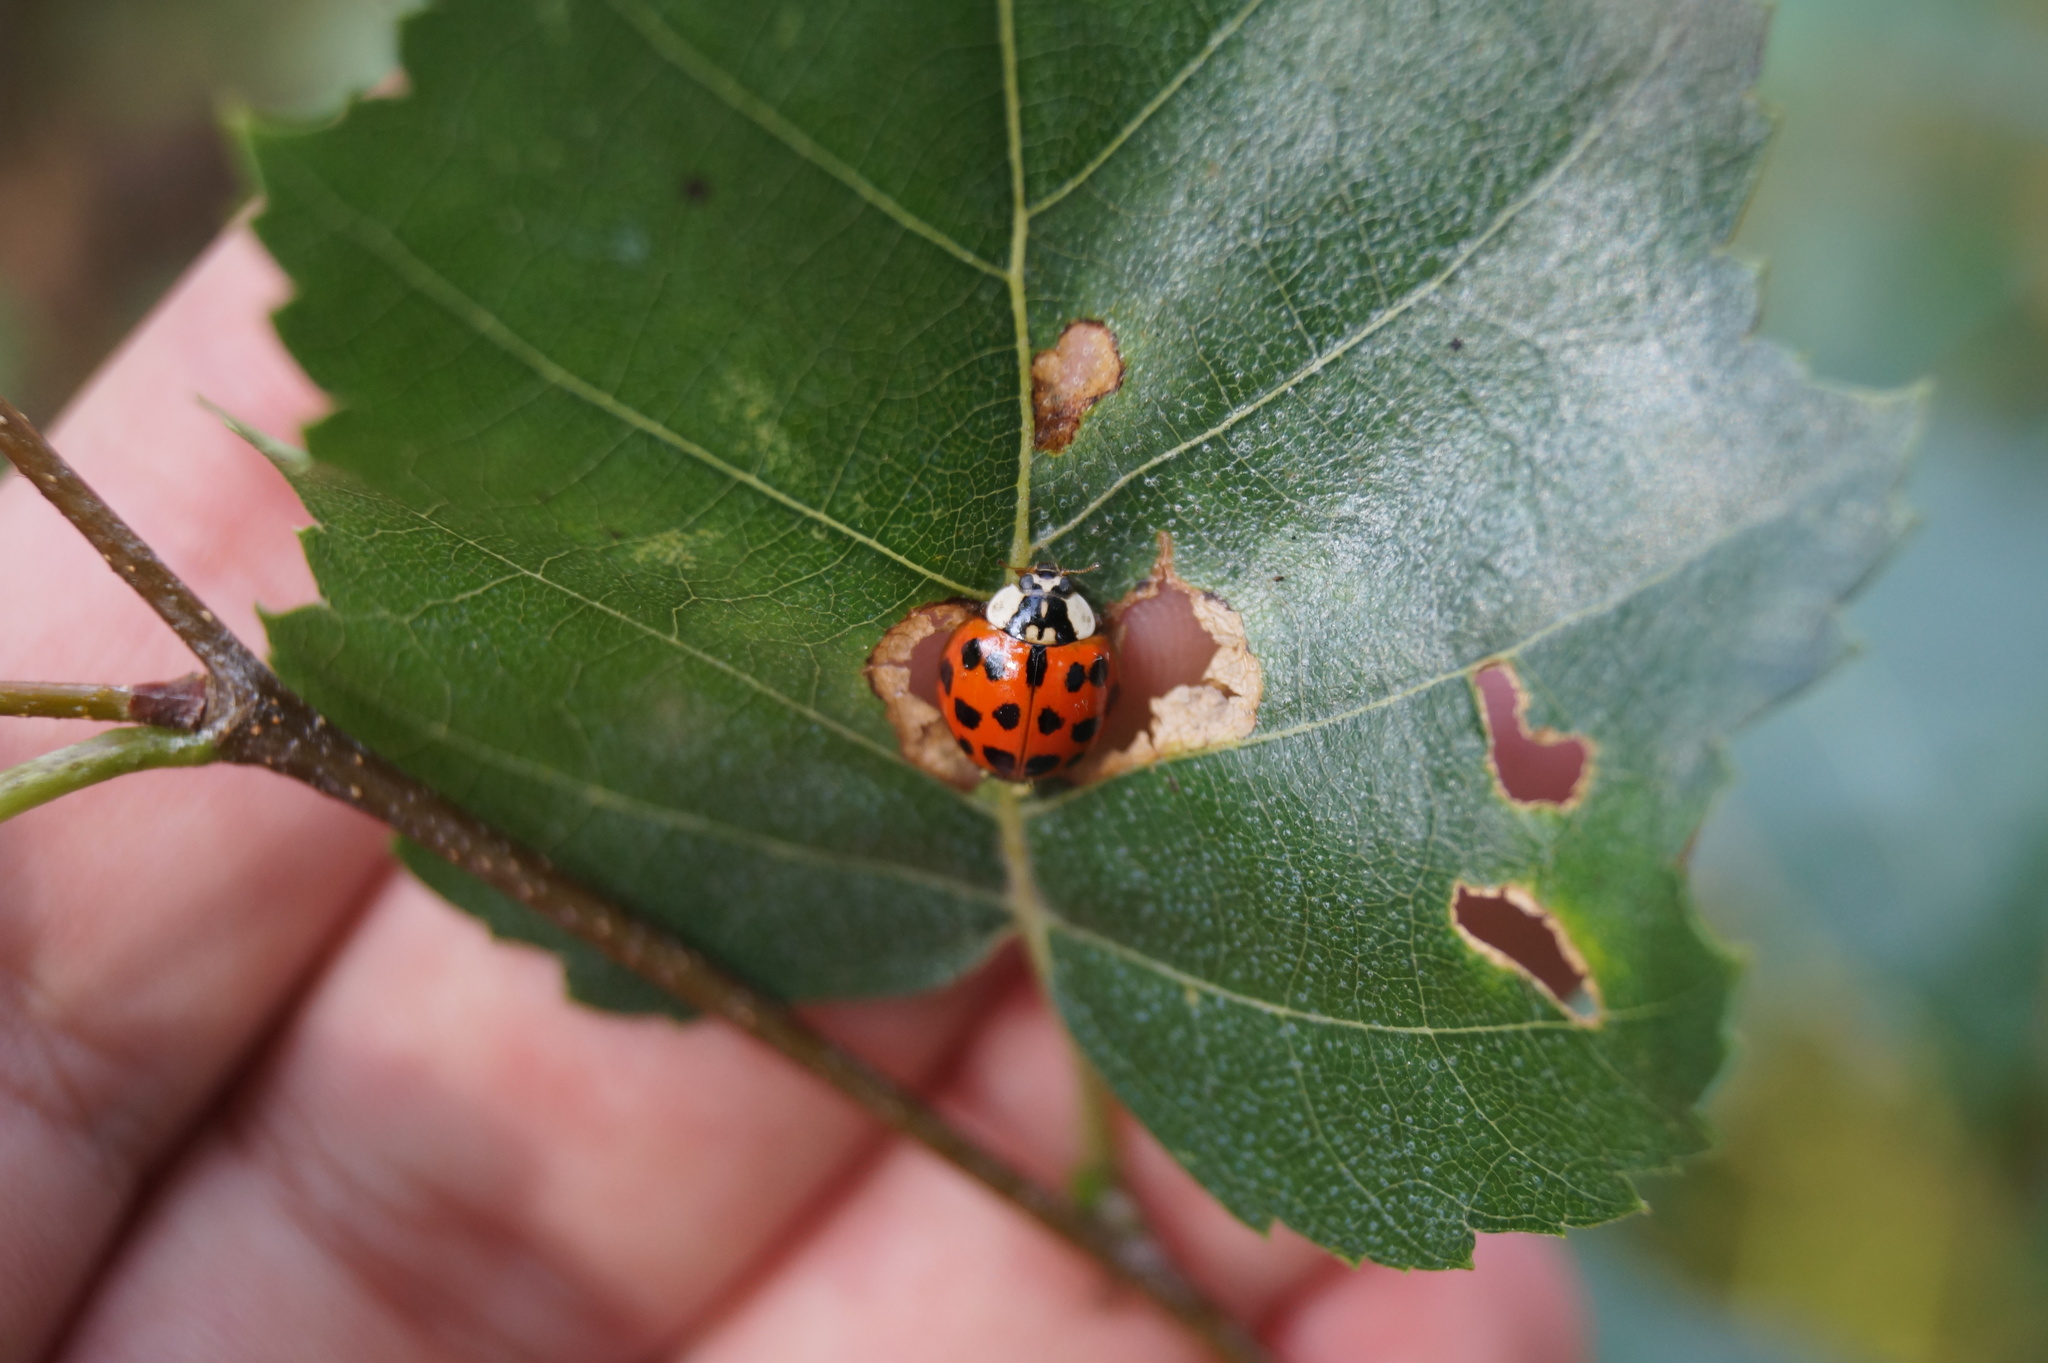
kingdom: Animalia
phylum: Arthropoda
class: Insecta
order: Coleoptera
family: Coccinellidae
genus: Harmonia
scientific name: Harmonia axyridis
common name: Harlequin ladybird
